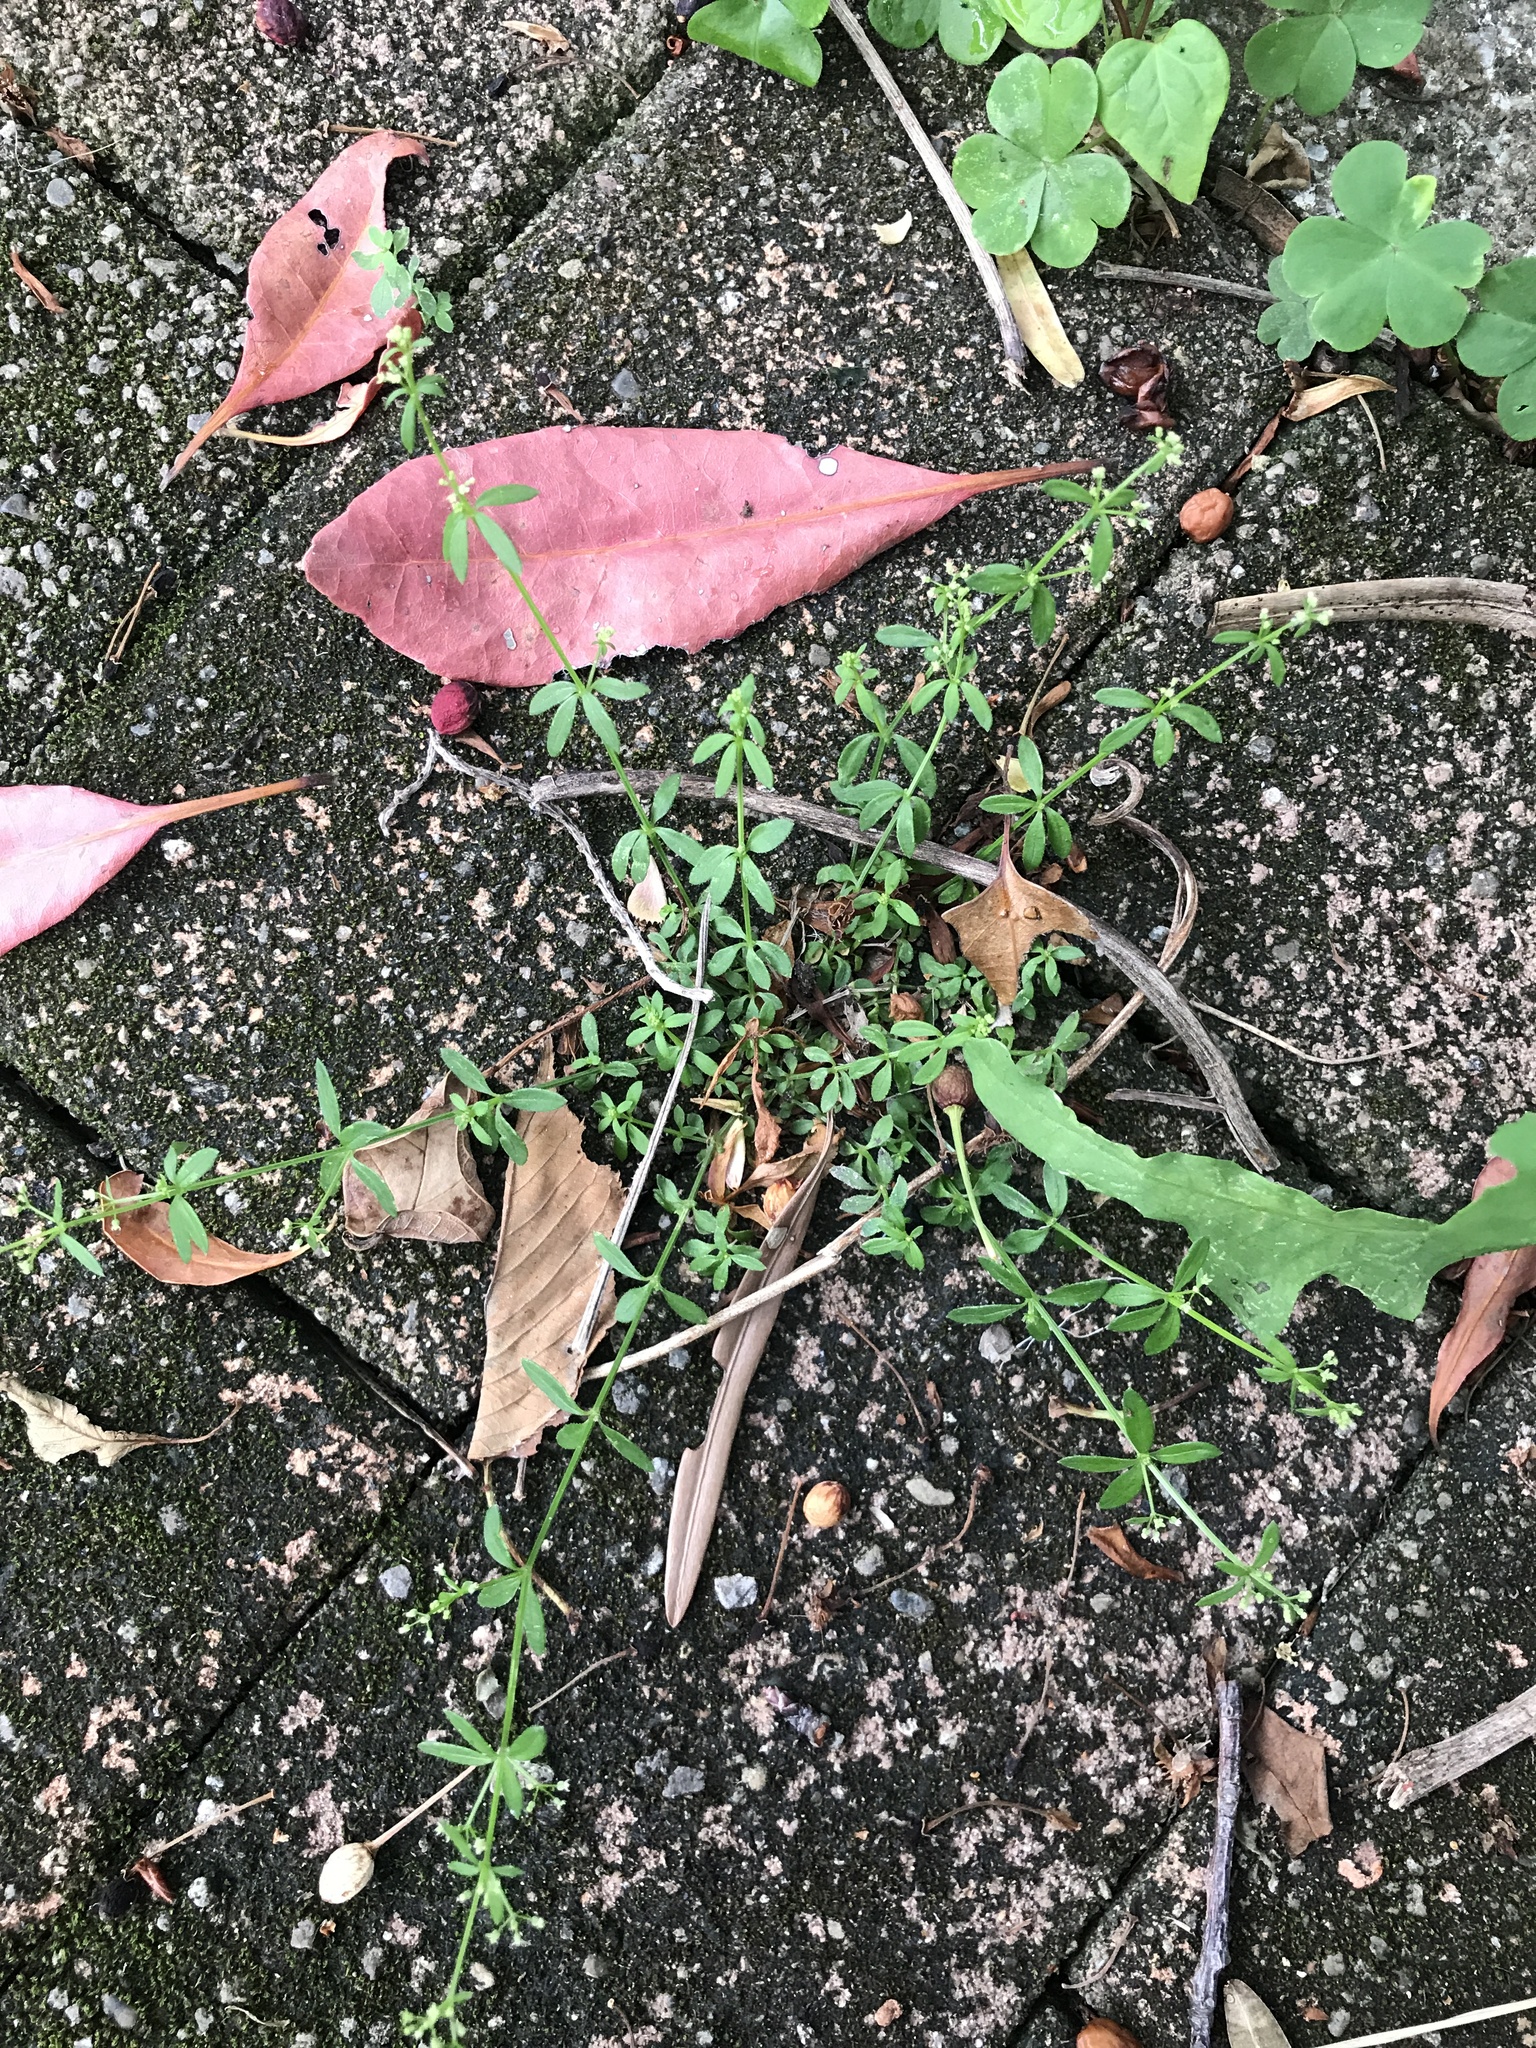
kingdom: Plantae
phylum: Tracheophyta
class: Magnoliopsida
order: Gentianales
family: Rubiaceae
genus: Galium
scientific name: Galium bungei
